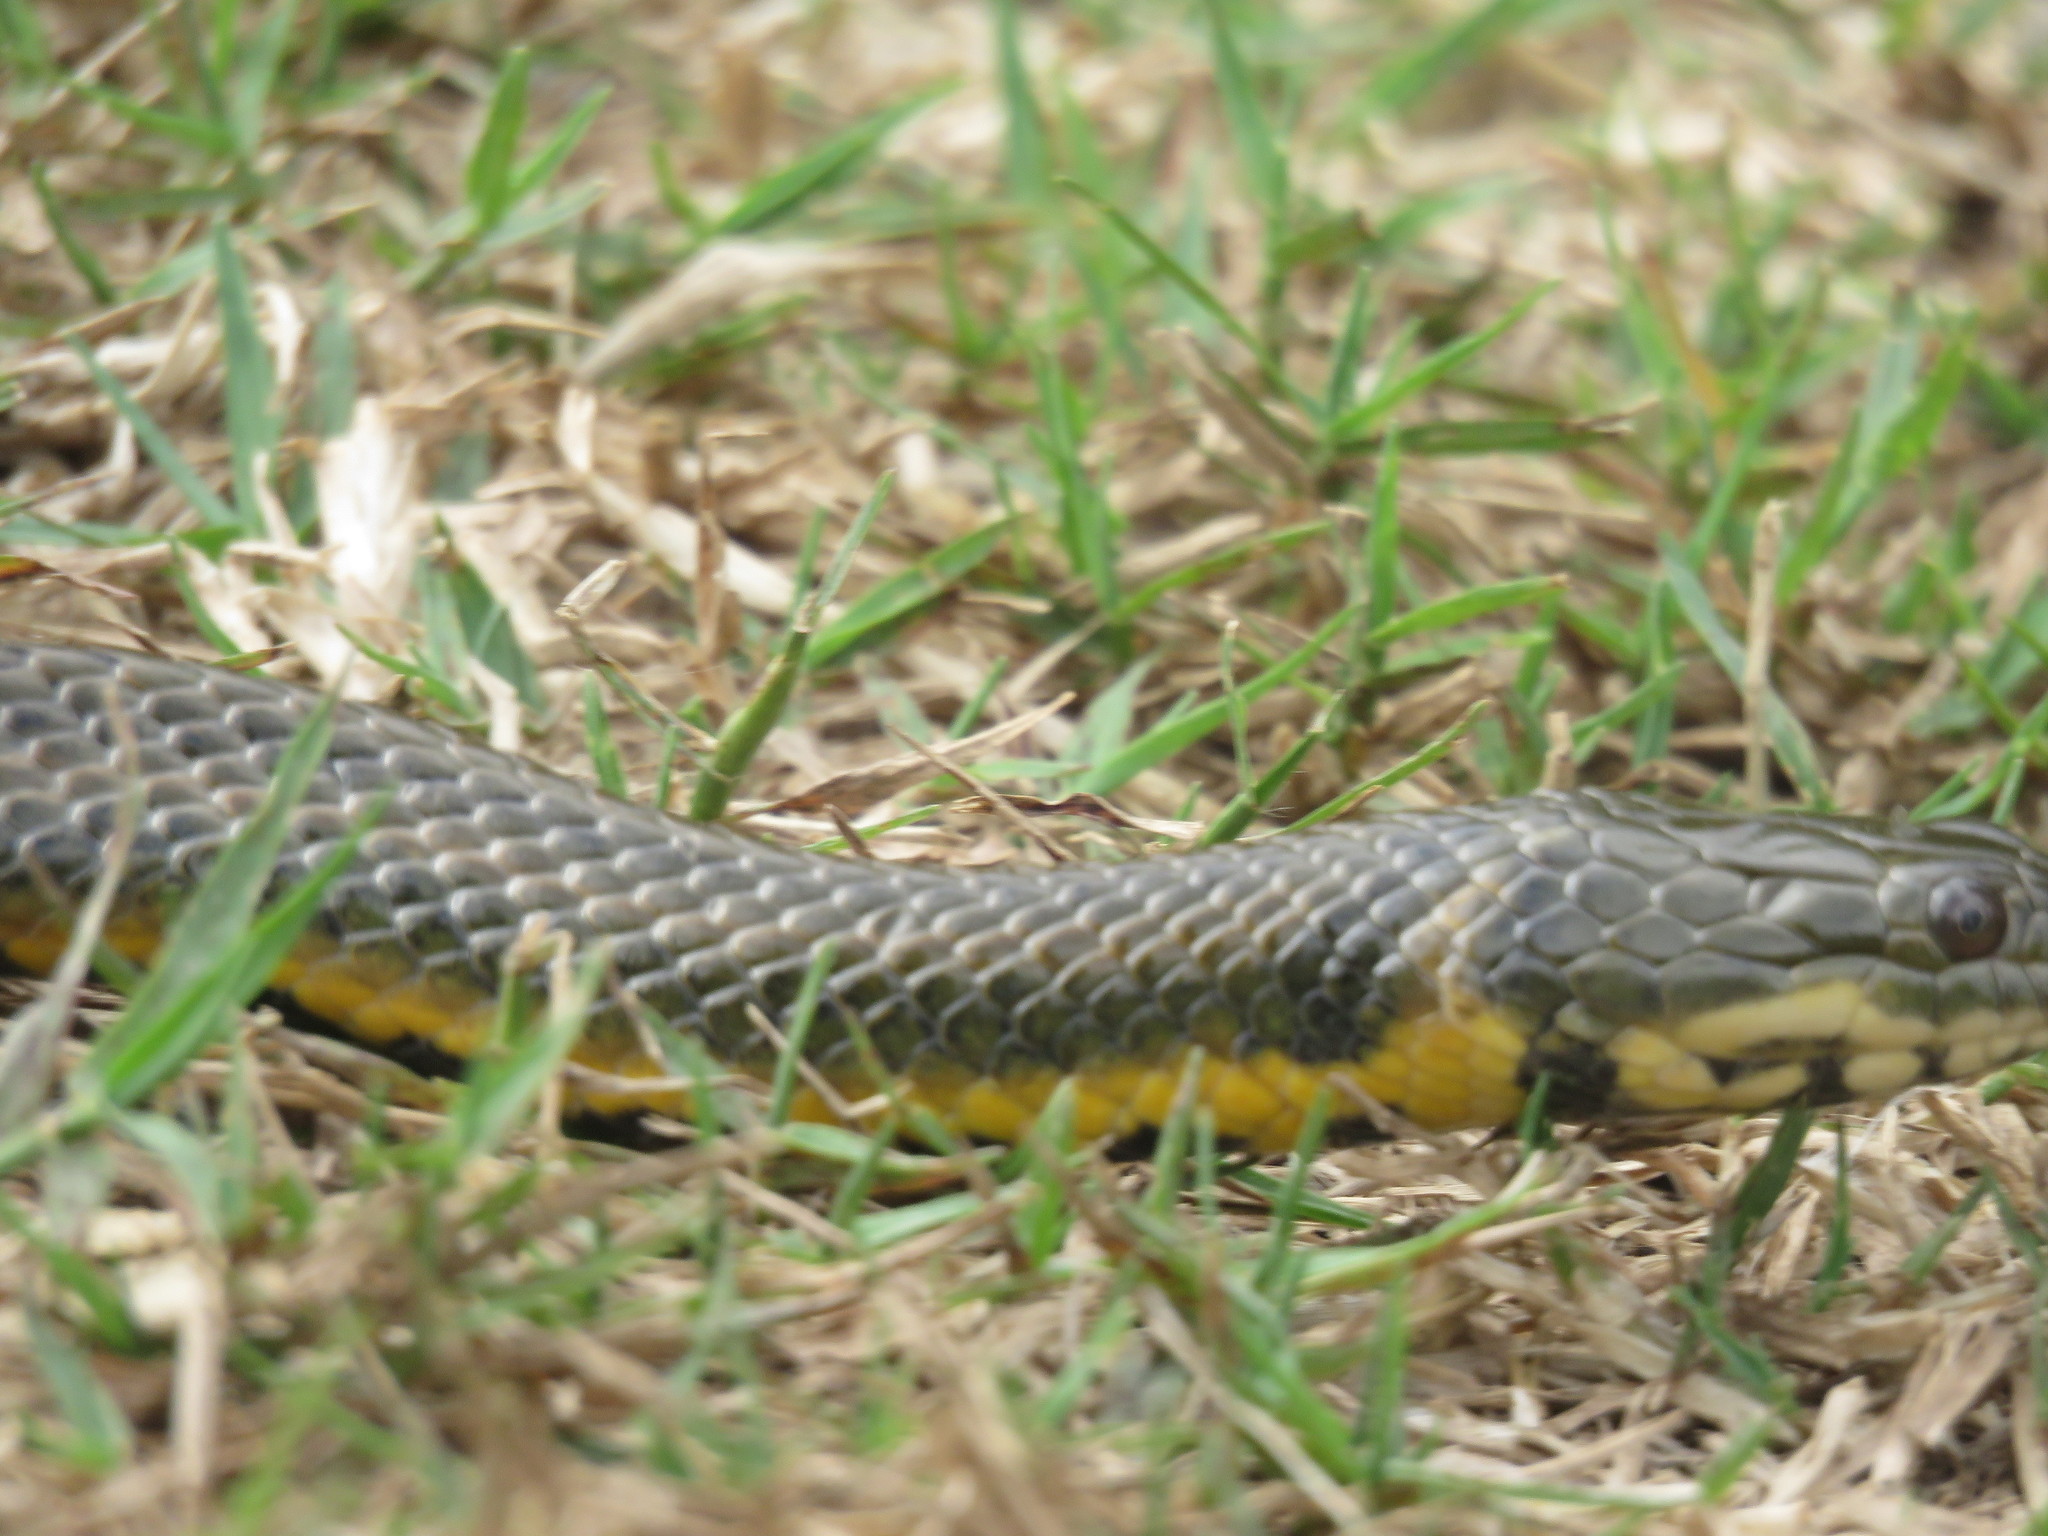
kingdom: Animalia
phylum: Chordata
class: Squamata
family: Colubridae
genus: Helicops
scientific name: Helicops infrataeniatus
